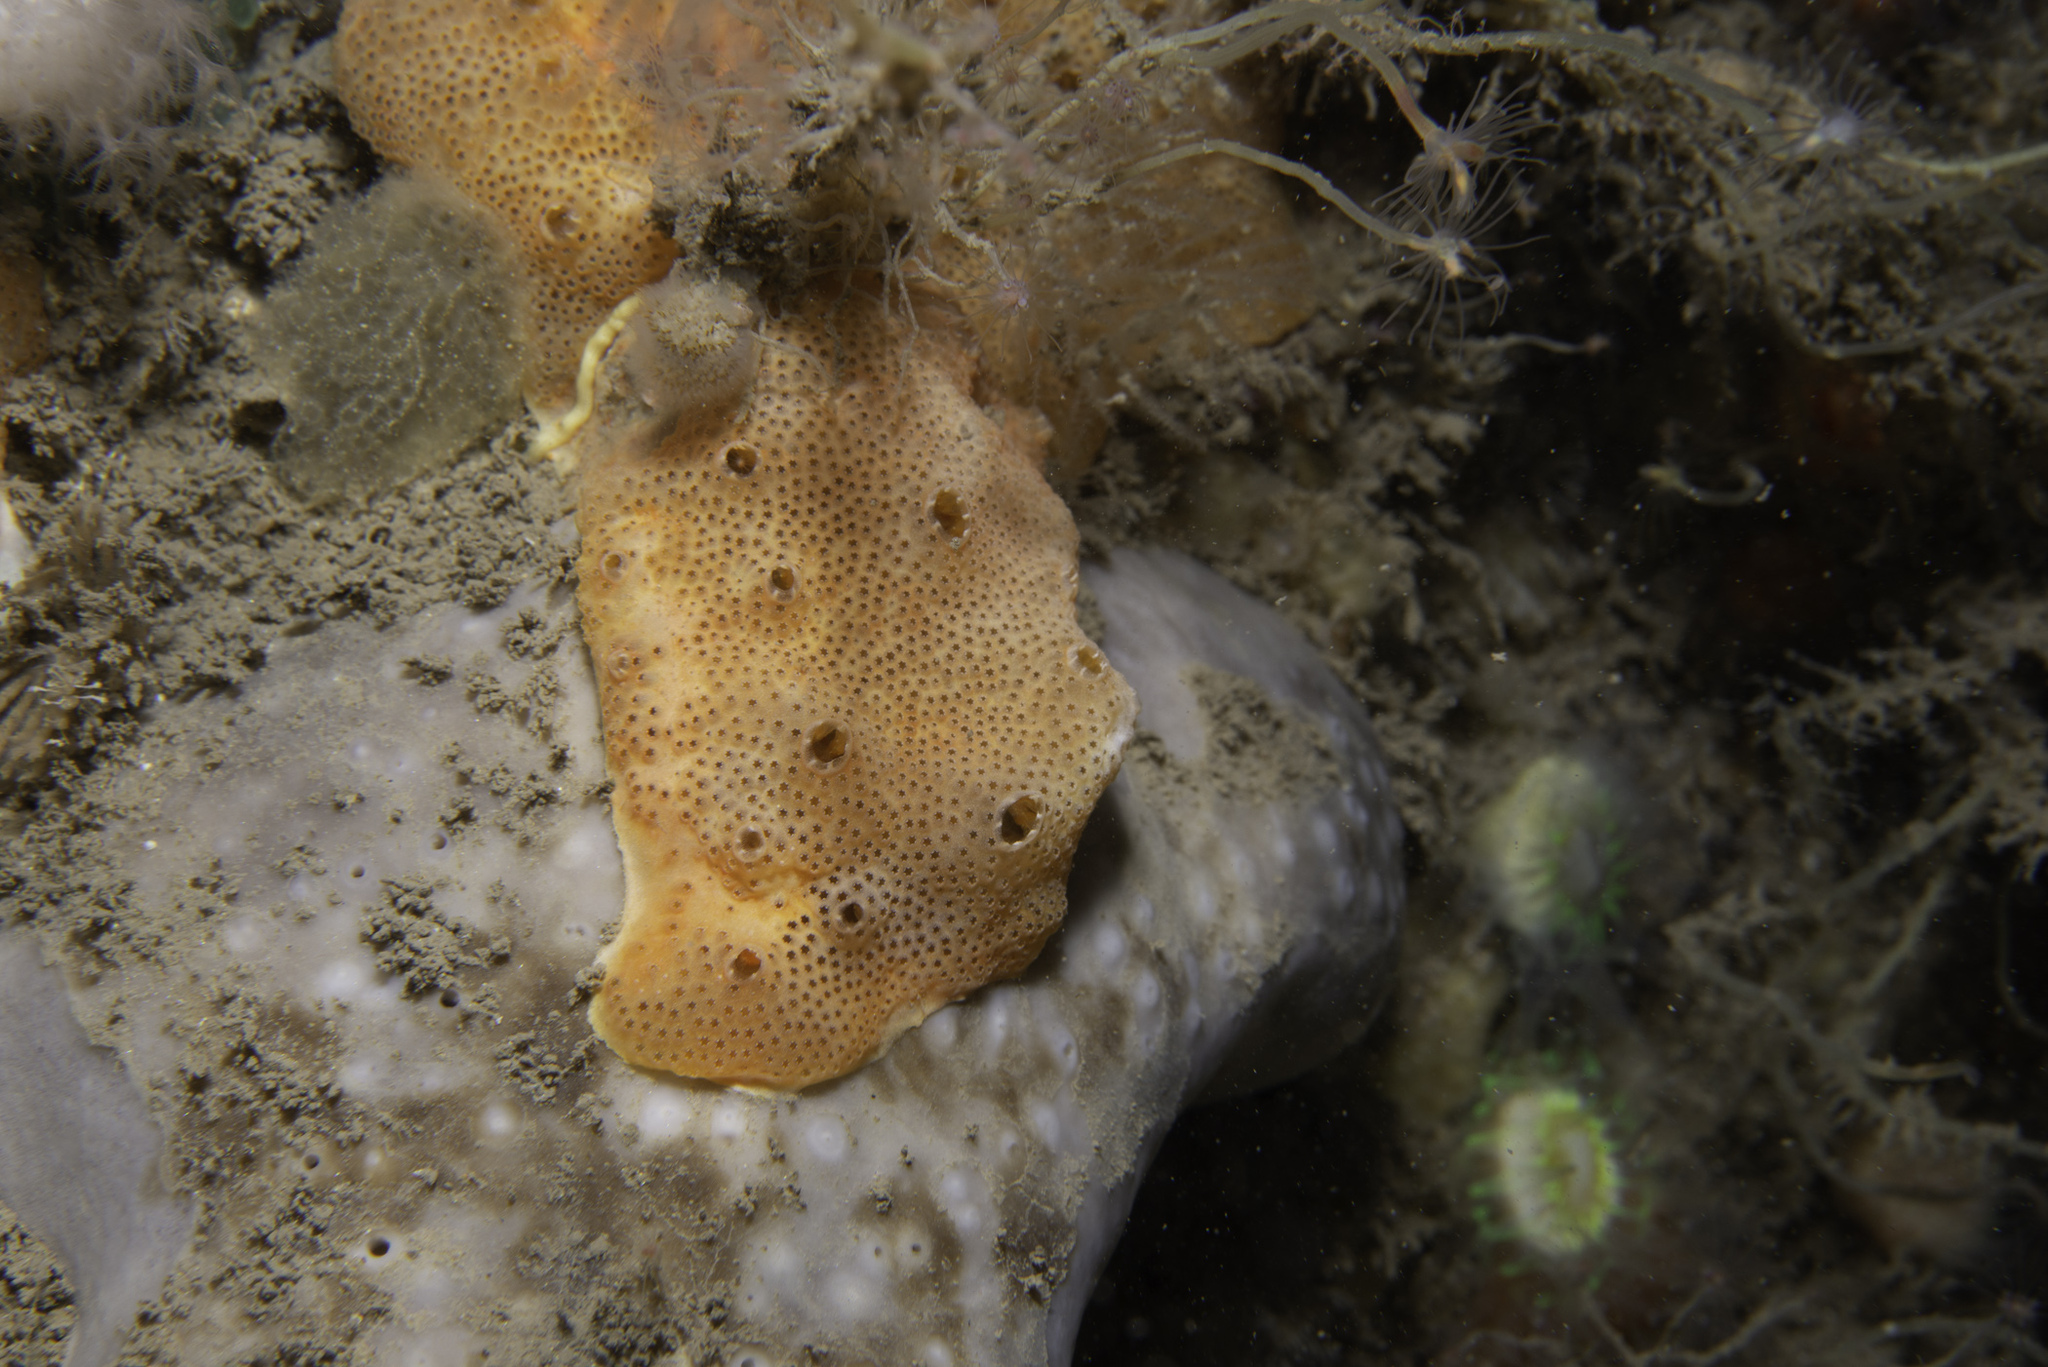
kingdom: Animalia
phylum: Chordata
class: Ascidiacea
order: Aplousobranchia
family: Didemnidae
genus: Polysyncraton
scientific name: Polysyncraton bilobatum
